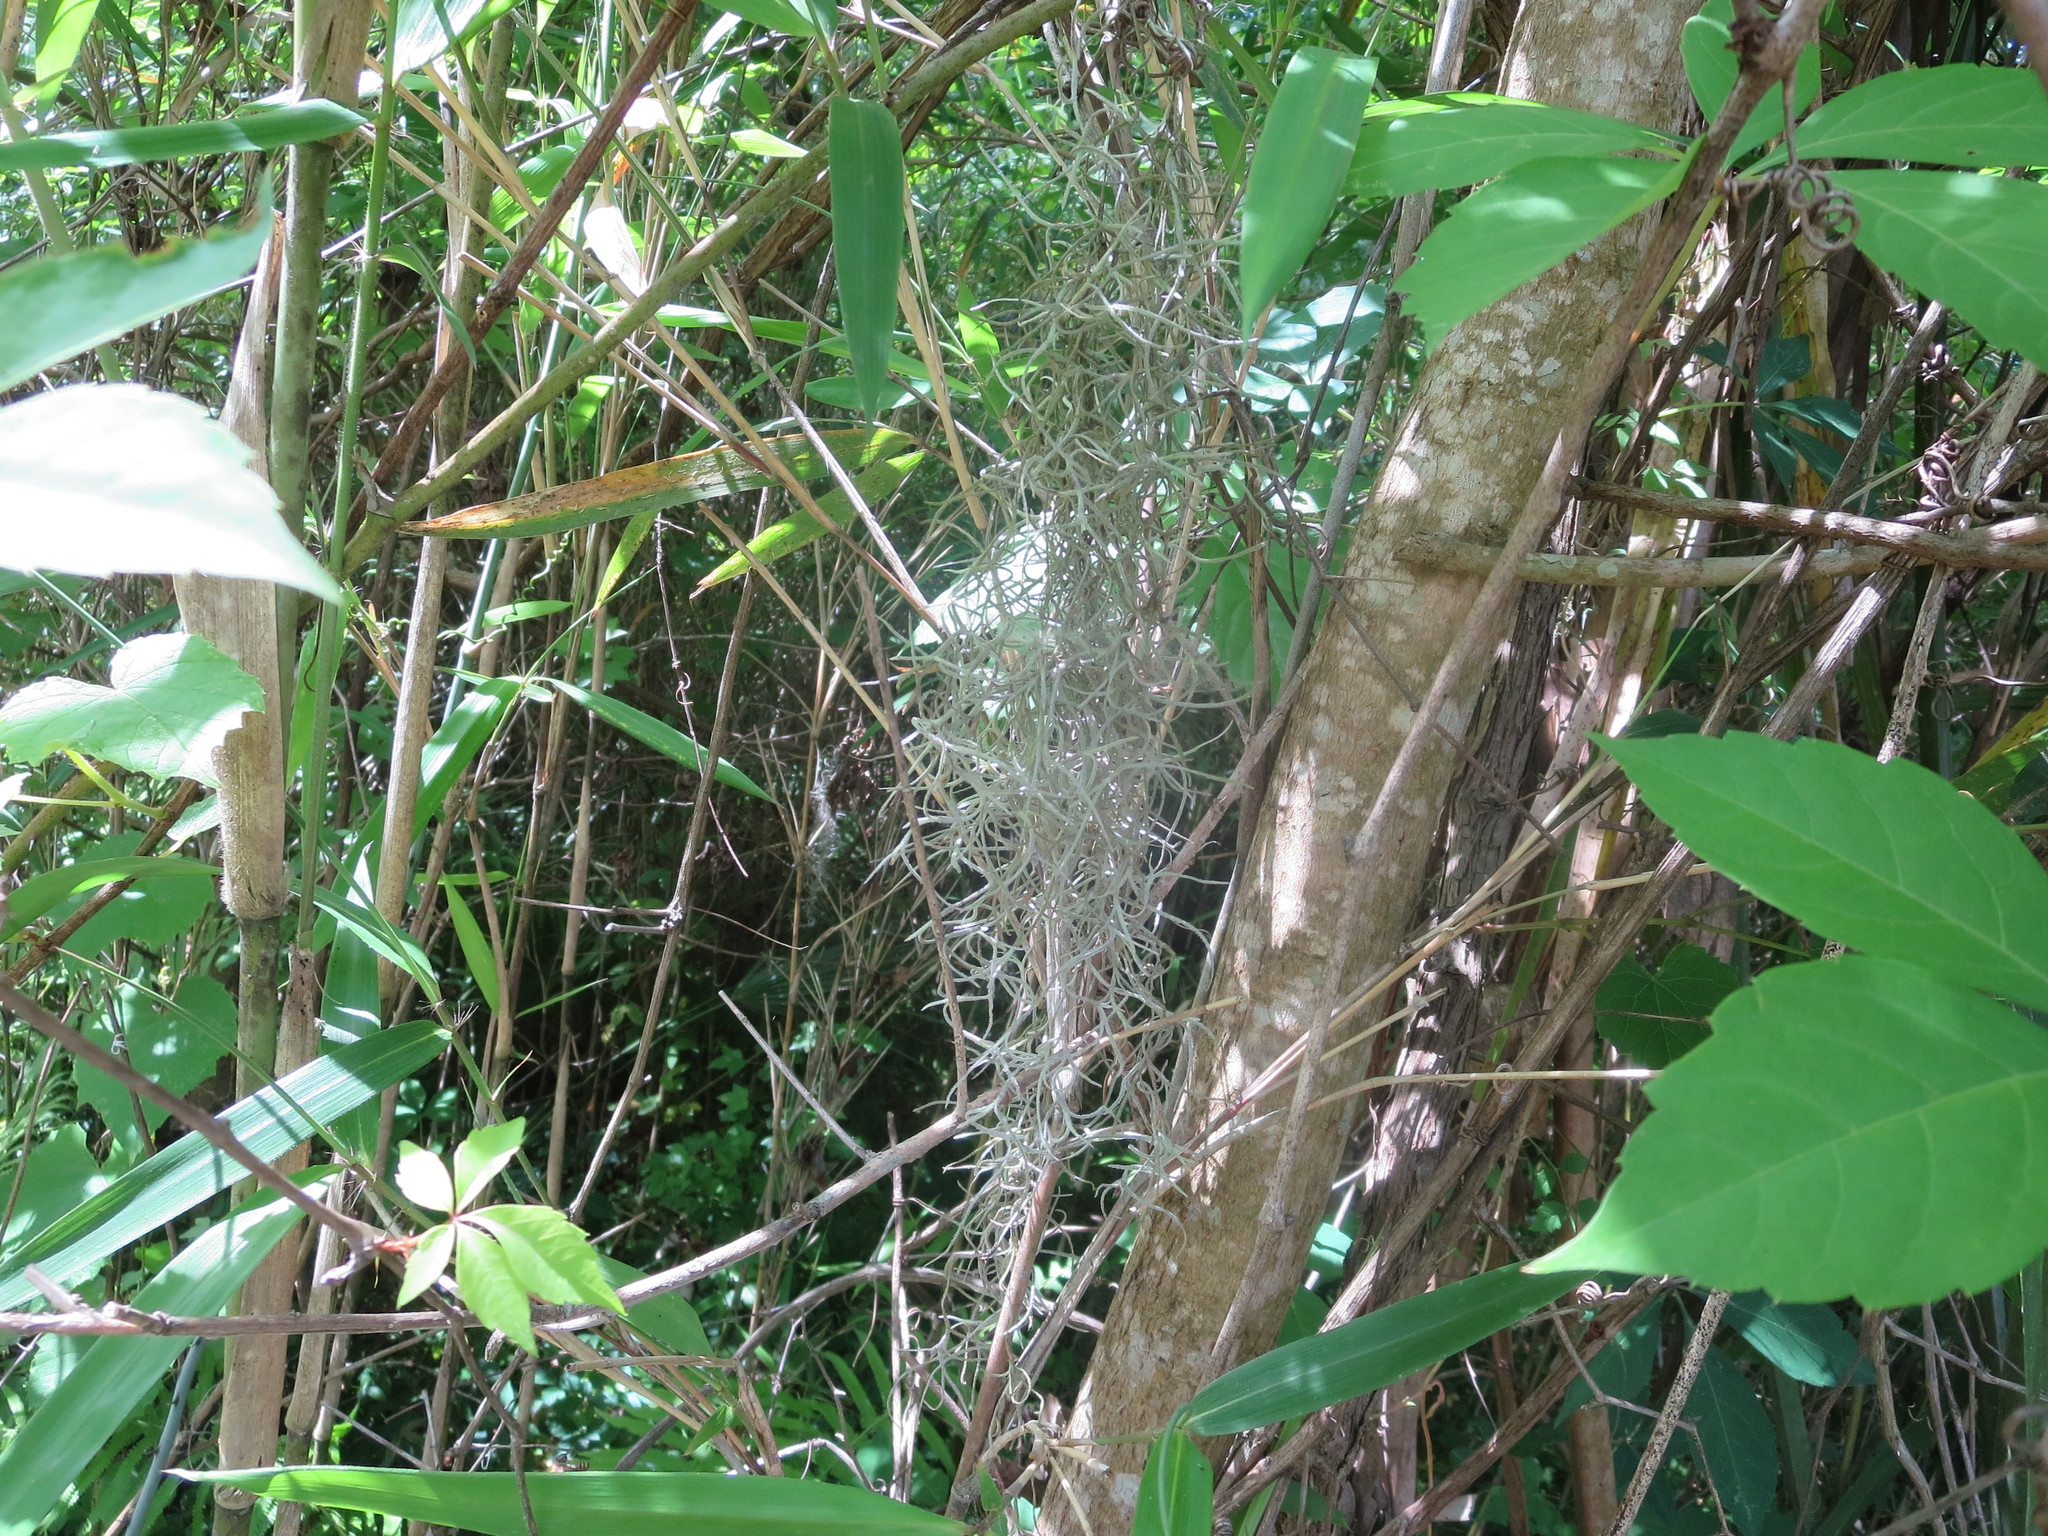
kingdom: Plantae
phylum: Tracheophyta
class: Liliopsida
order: Poales
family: Bromeliaceae
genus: Tillandsia
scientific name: Tillandsia usneoides
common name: Spanish moss
